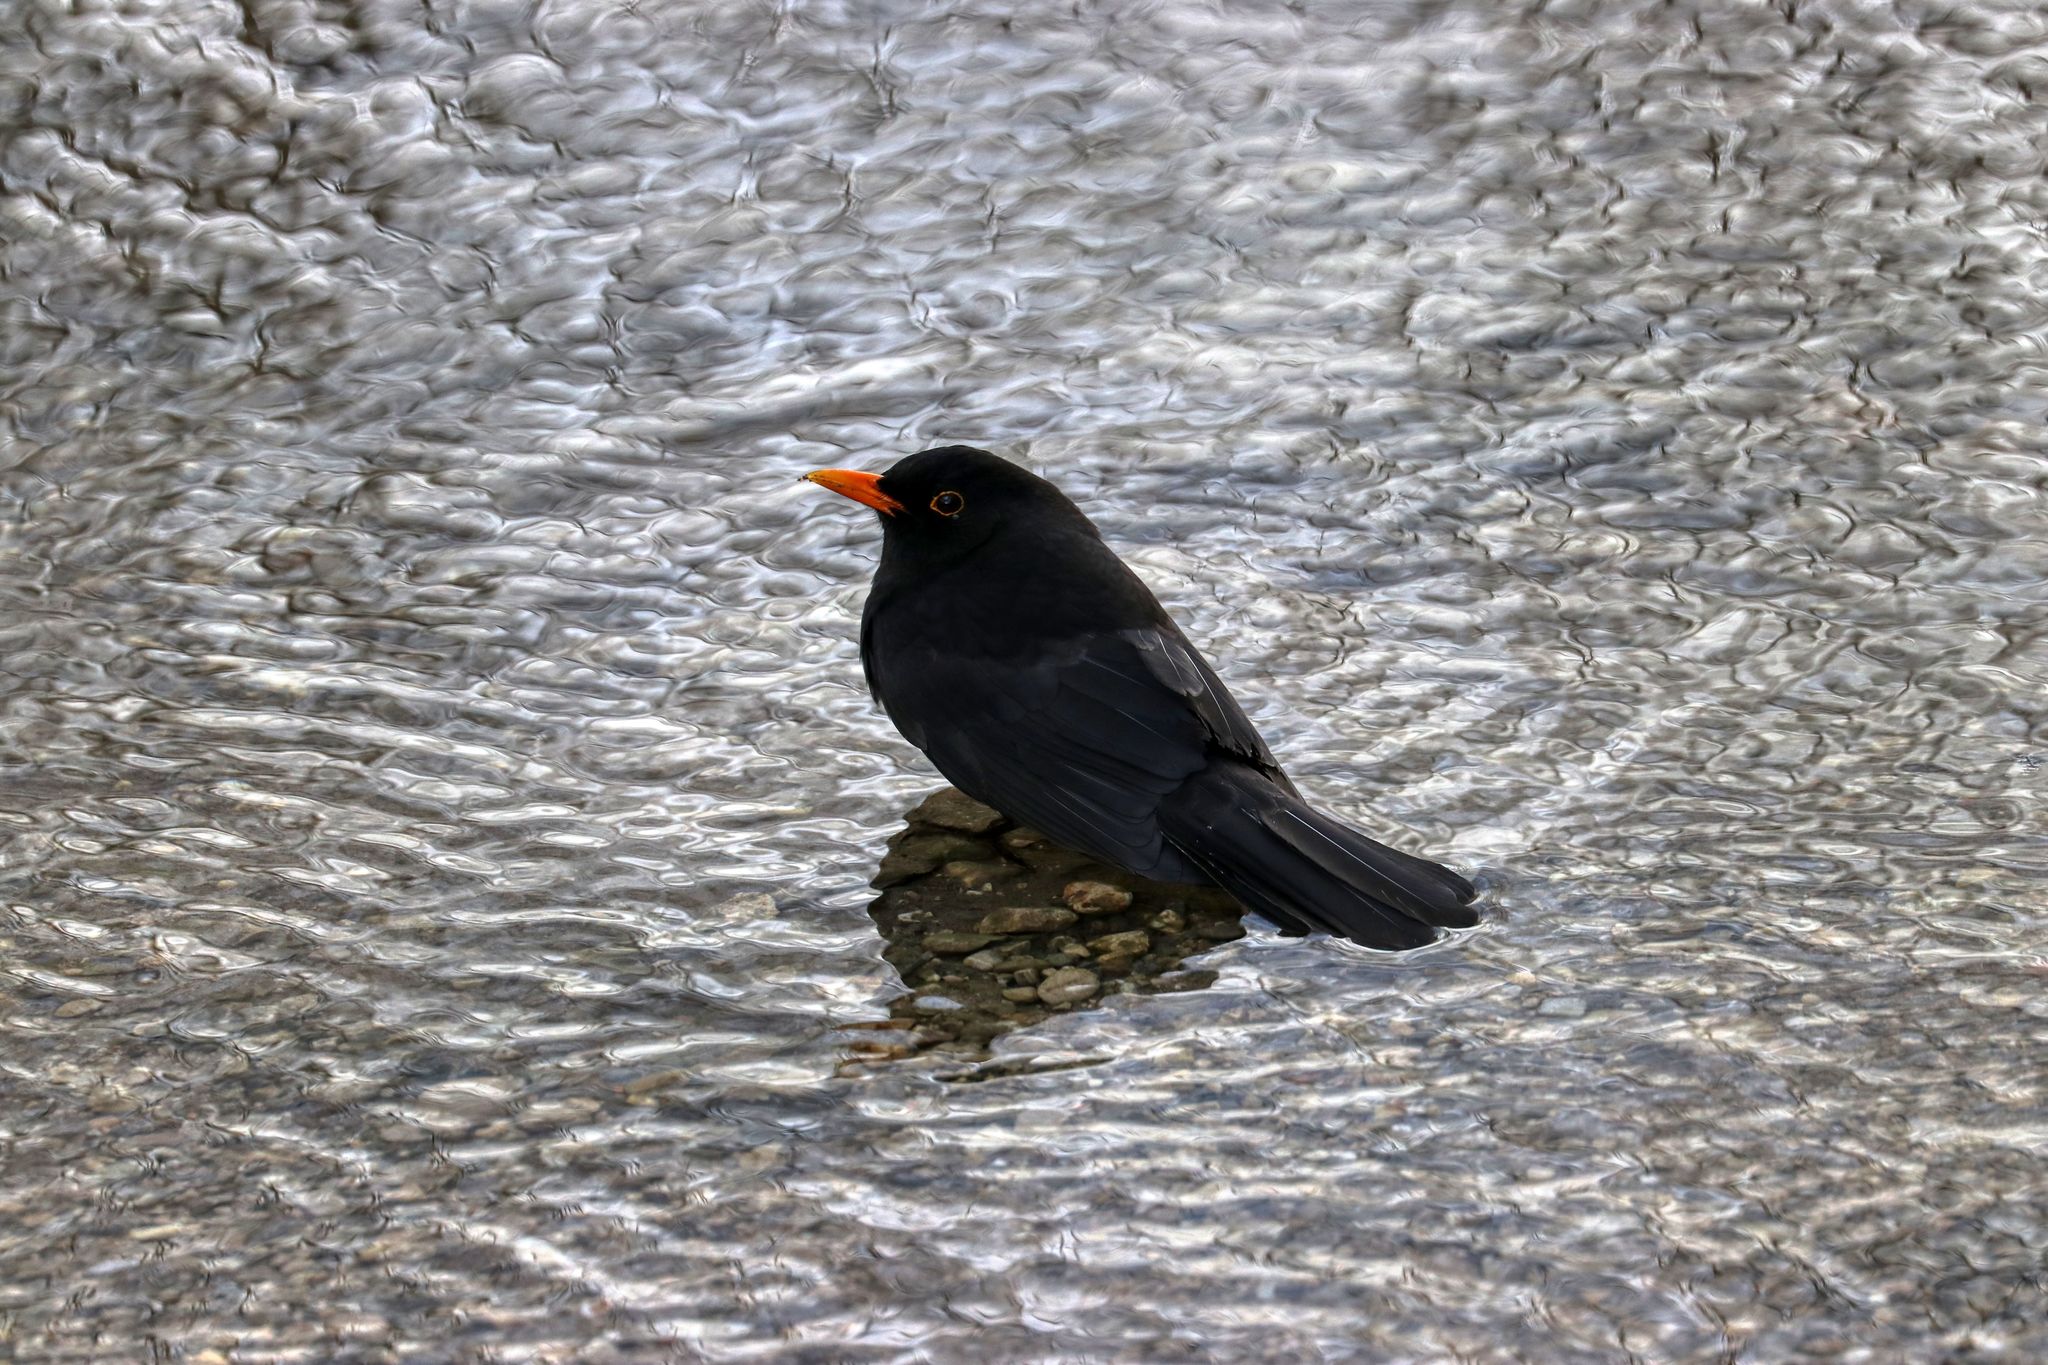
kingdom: Animalia
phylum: Chordata
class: Aves
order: Passeriformes
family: Turdidae
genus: Turdus
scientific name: Turdus merula
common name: Common blackbird
